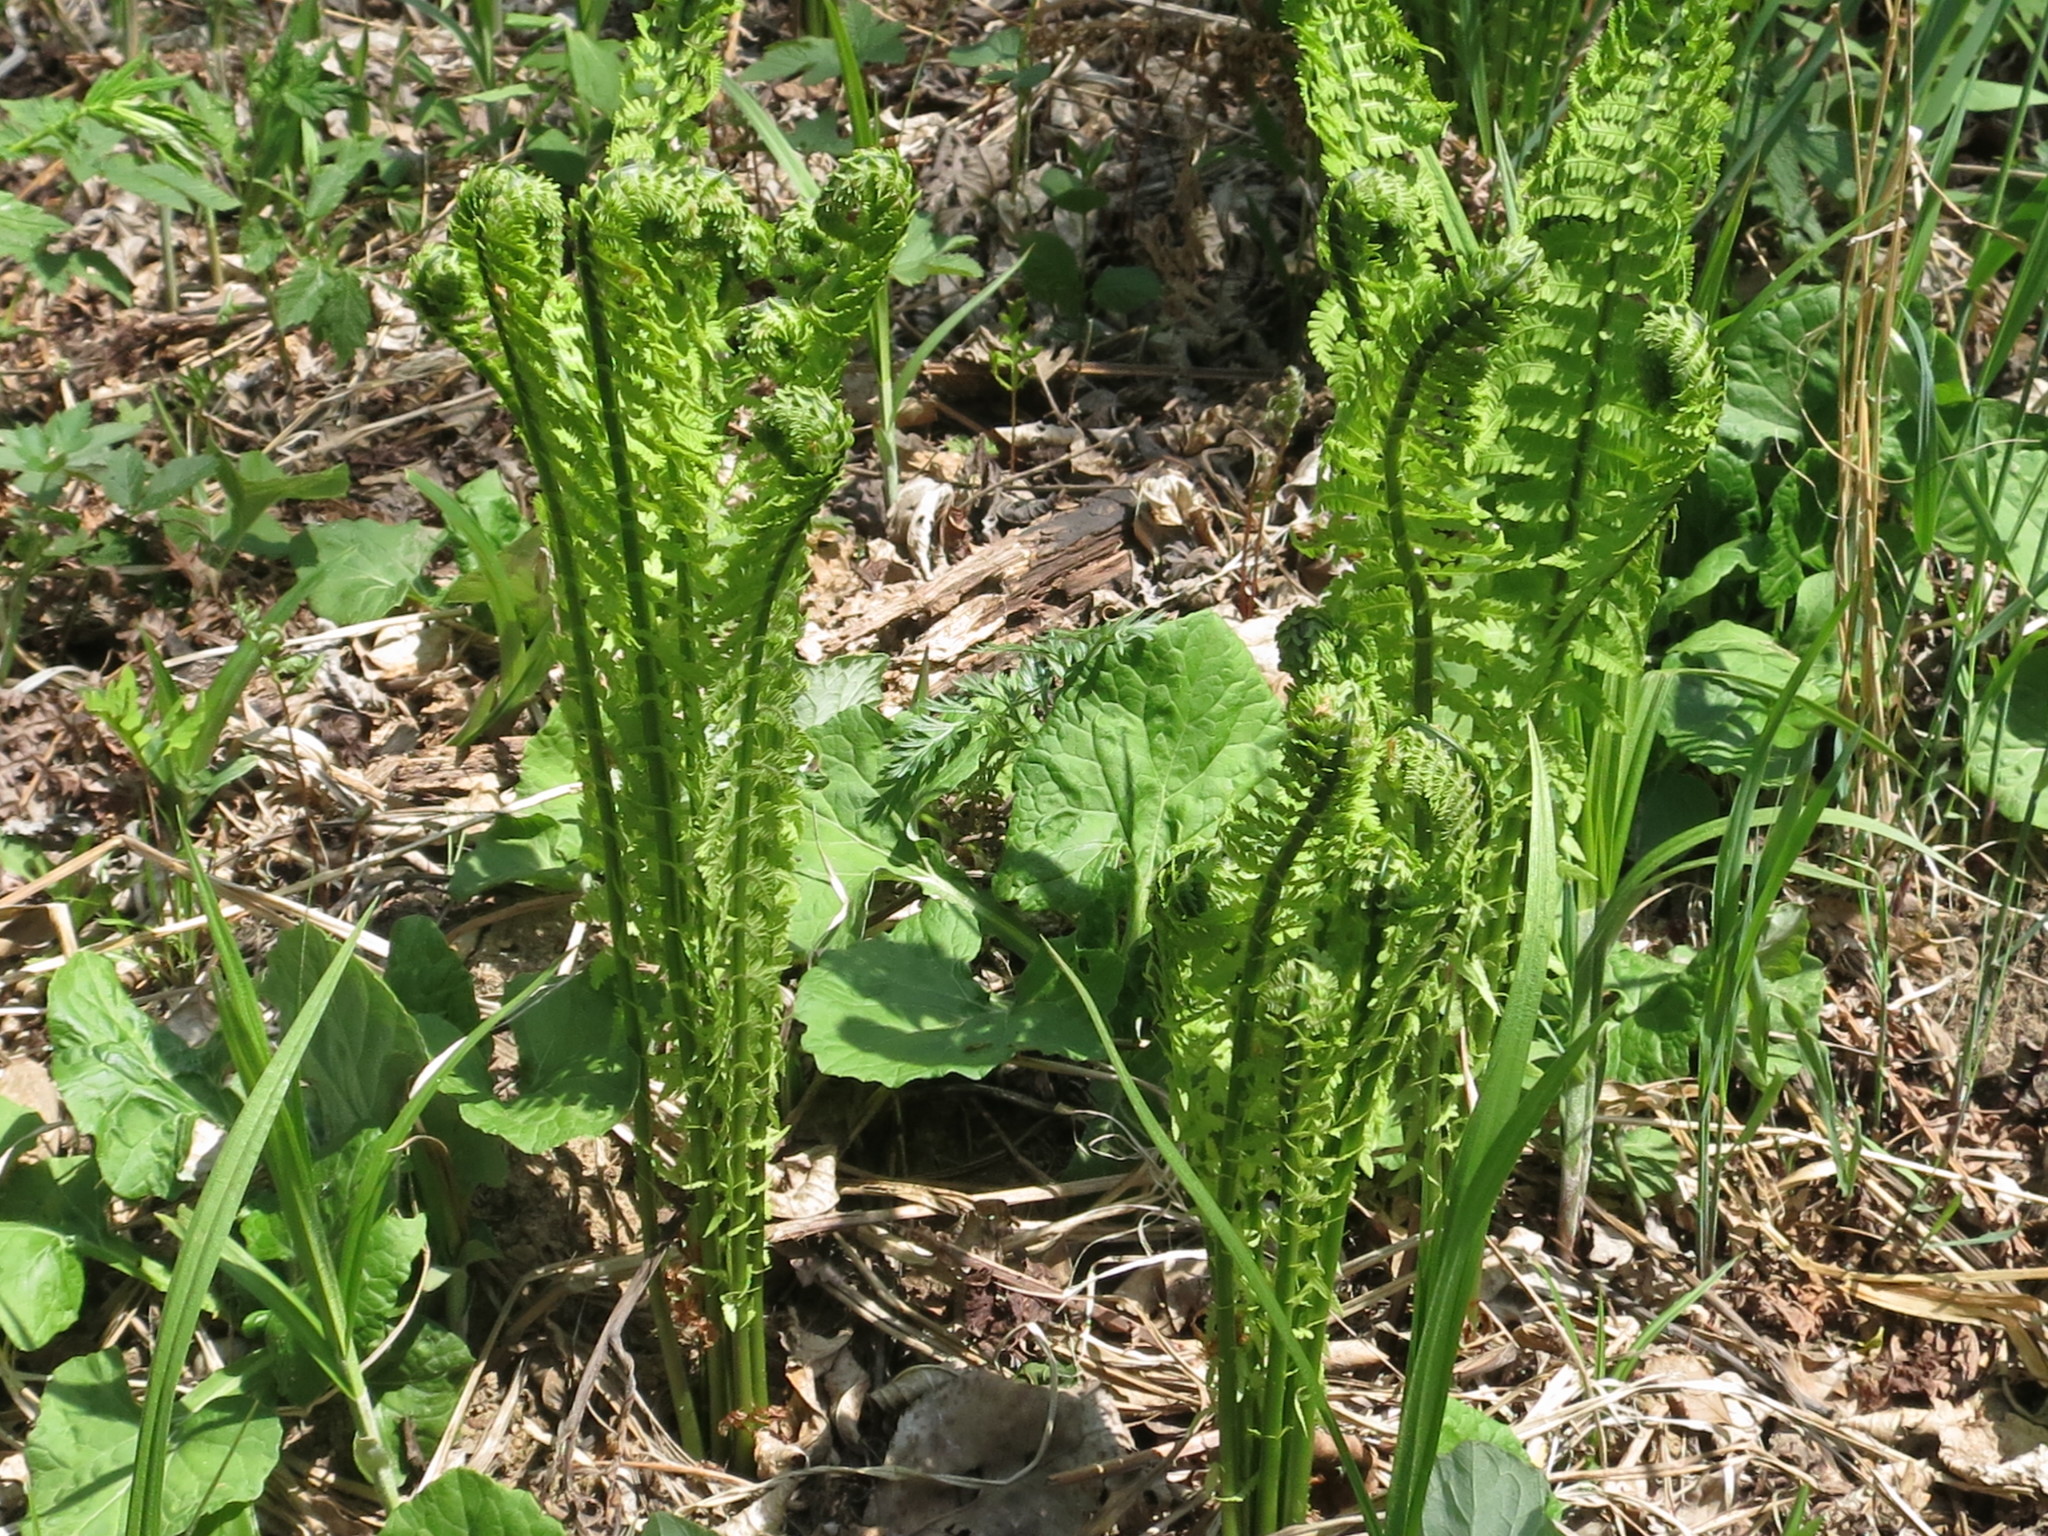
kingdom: Plantae
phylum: Tracheophyta
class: Polypodiopsida
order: Polypodiales
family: Onocleaceae
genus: Matteuccia
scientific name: Matteuccia struthiopteris
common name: Ostrich fern
